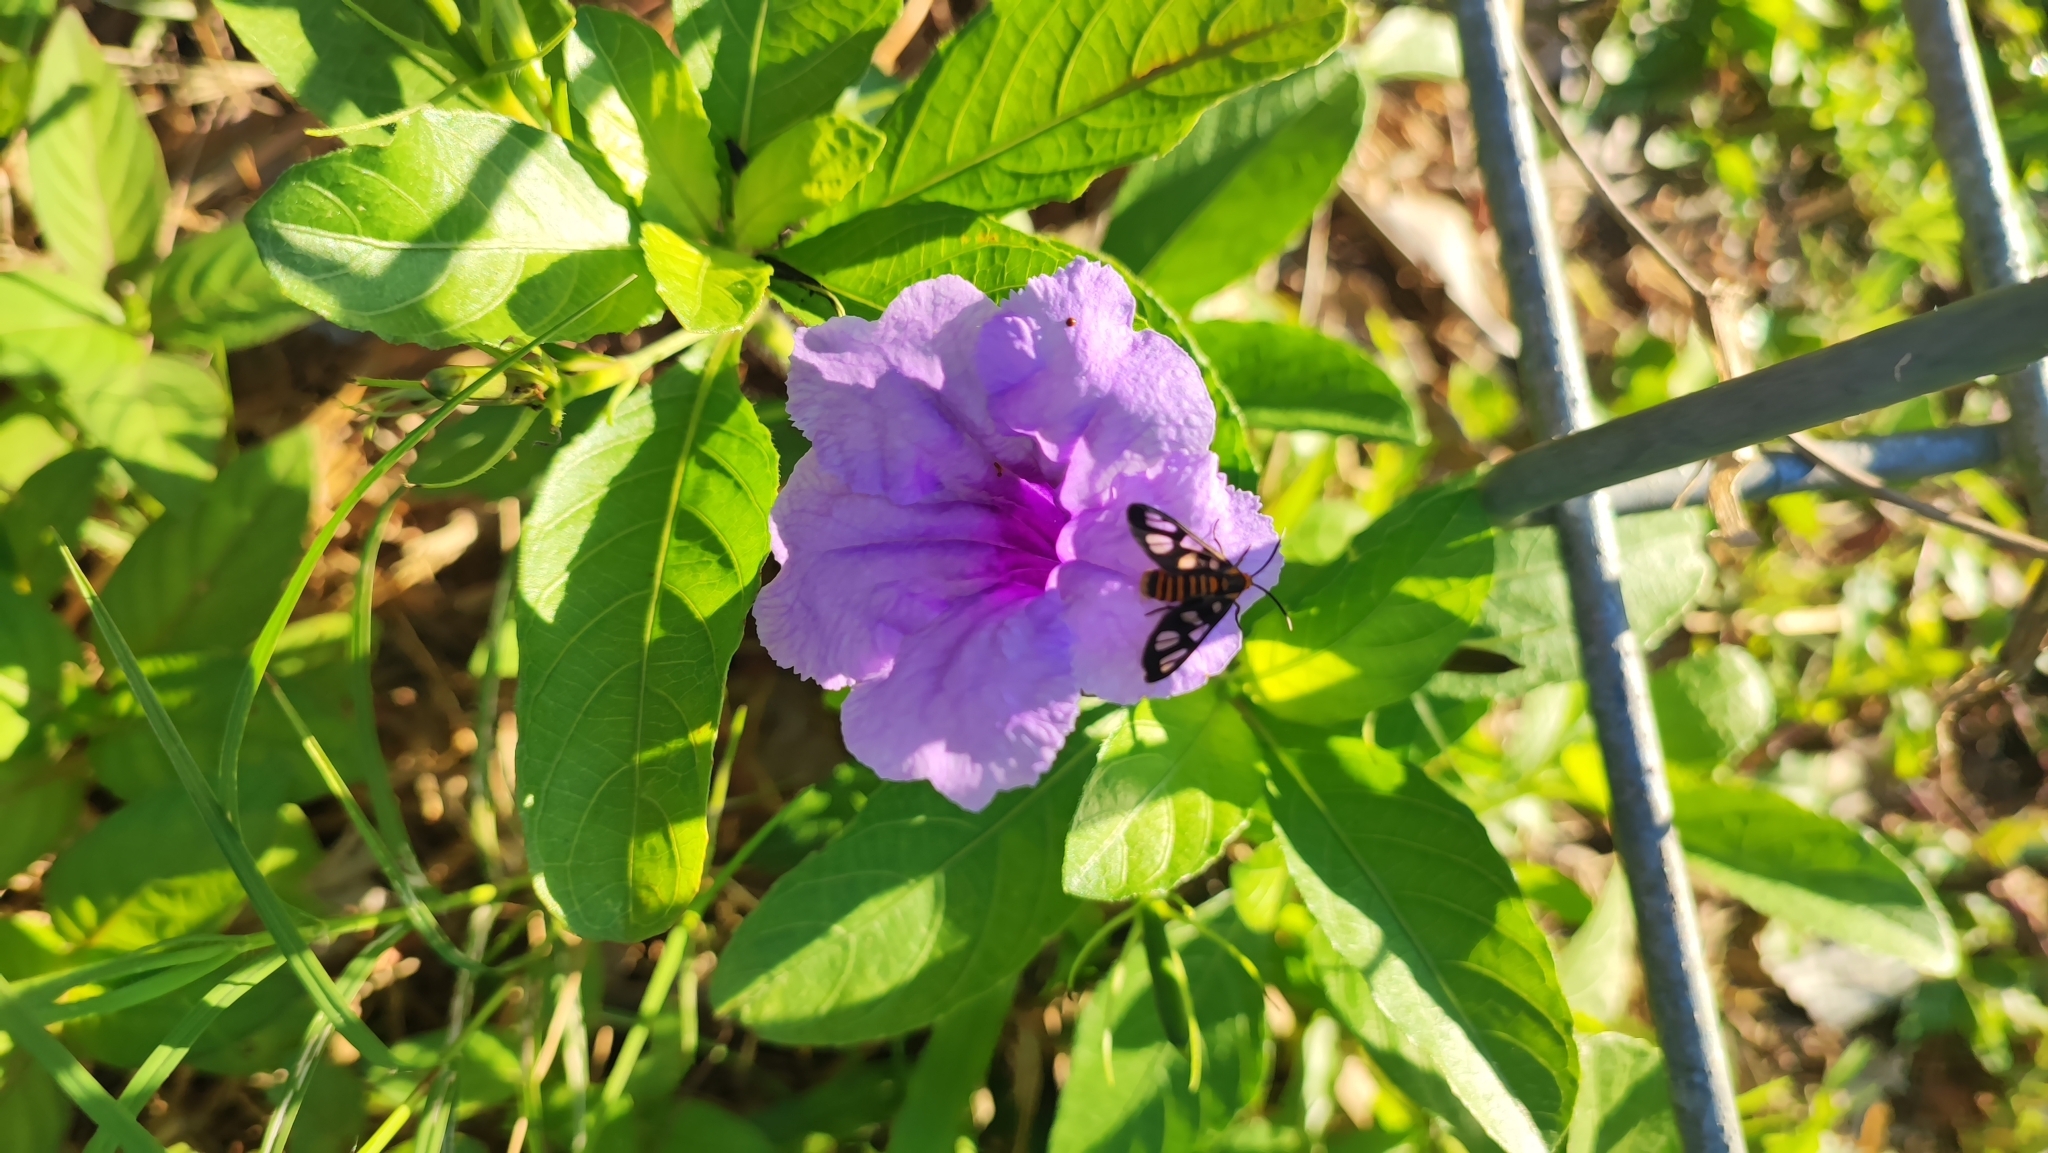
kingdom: Plantae
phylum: Tracheophyta
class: Magnoliopsida
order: Lamiales
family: Acanthaceae
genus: Ruellia
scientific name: Ruellia tuberosa
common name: Devil's bit
